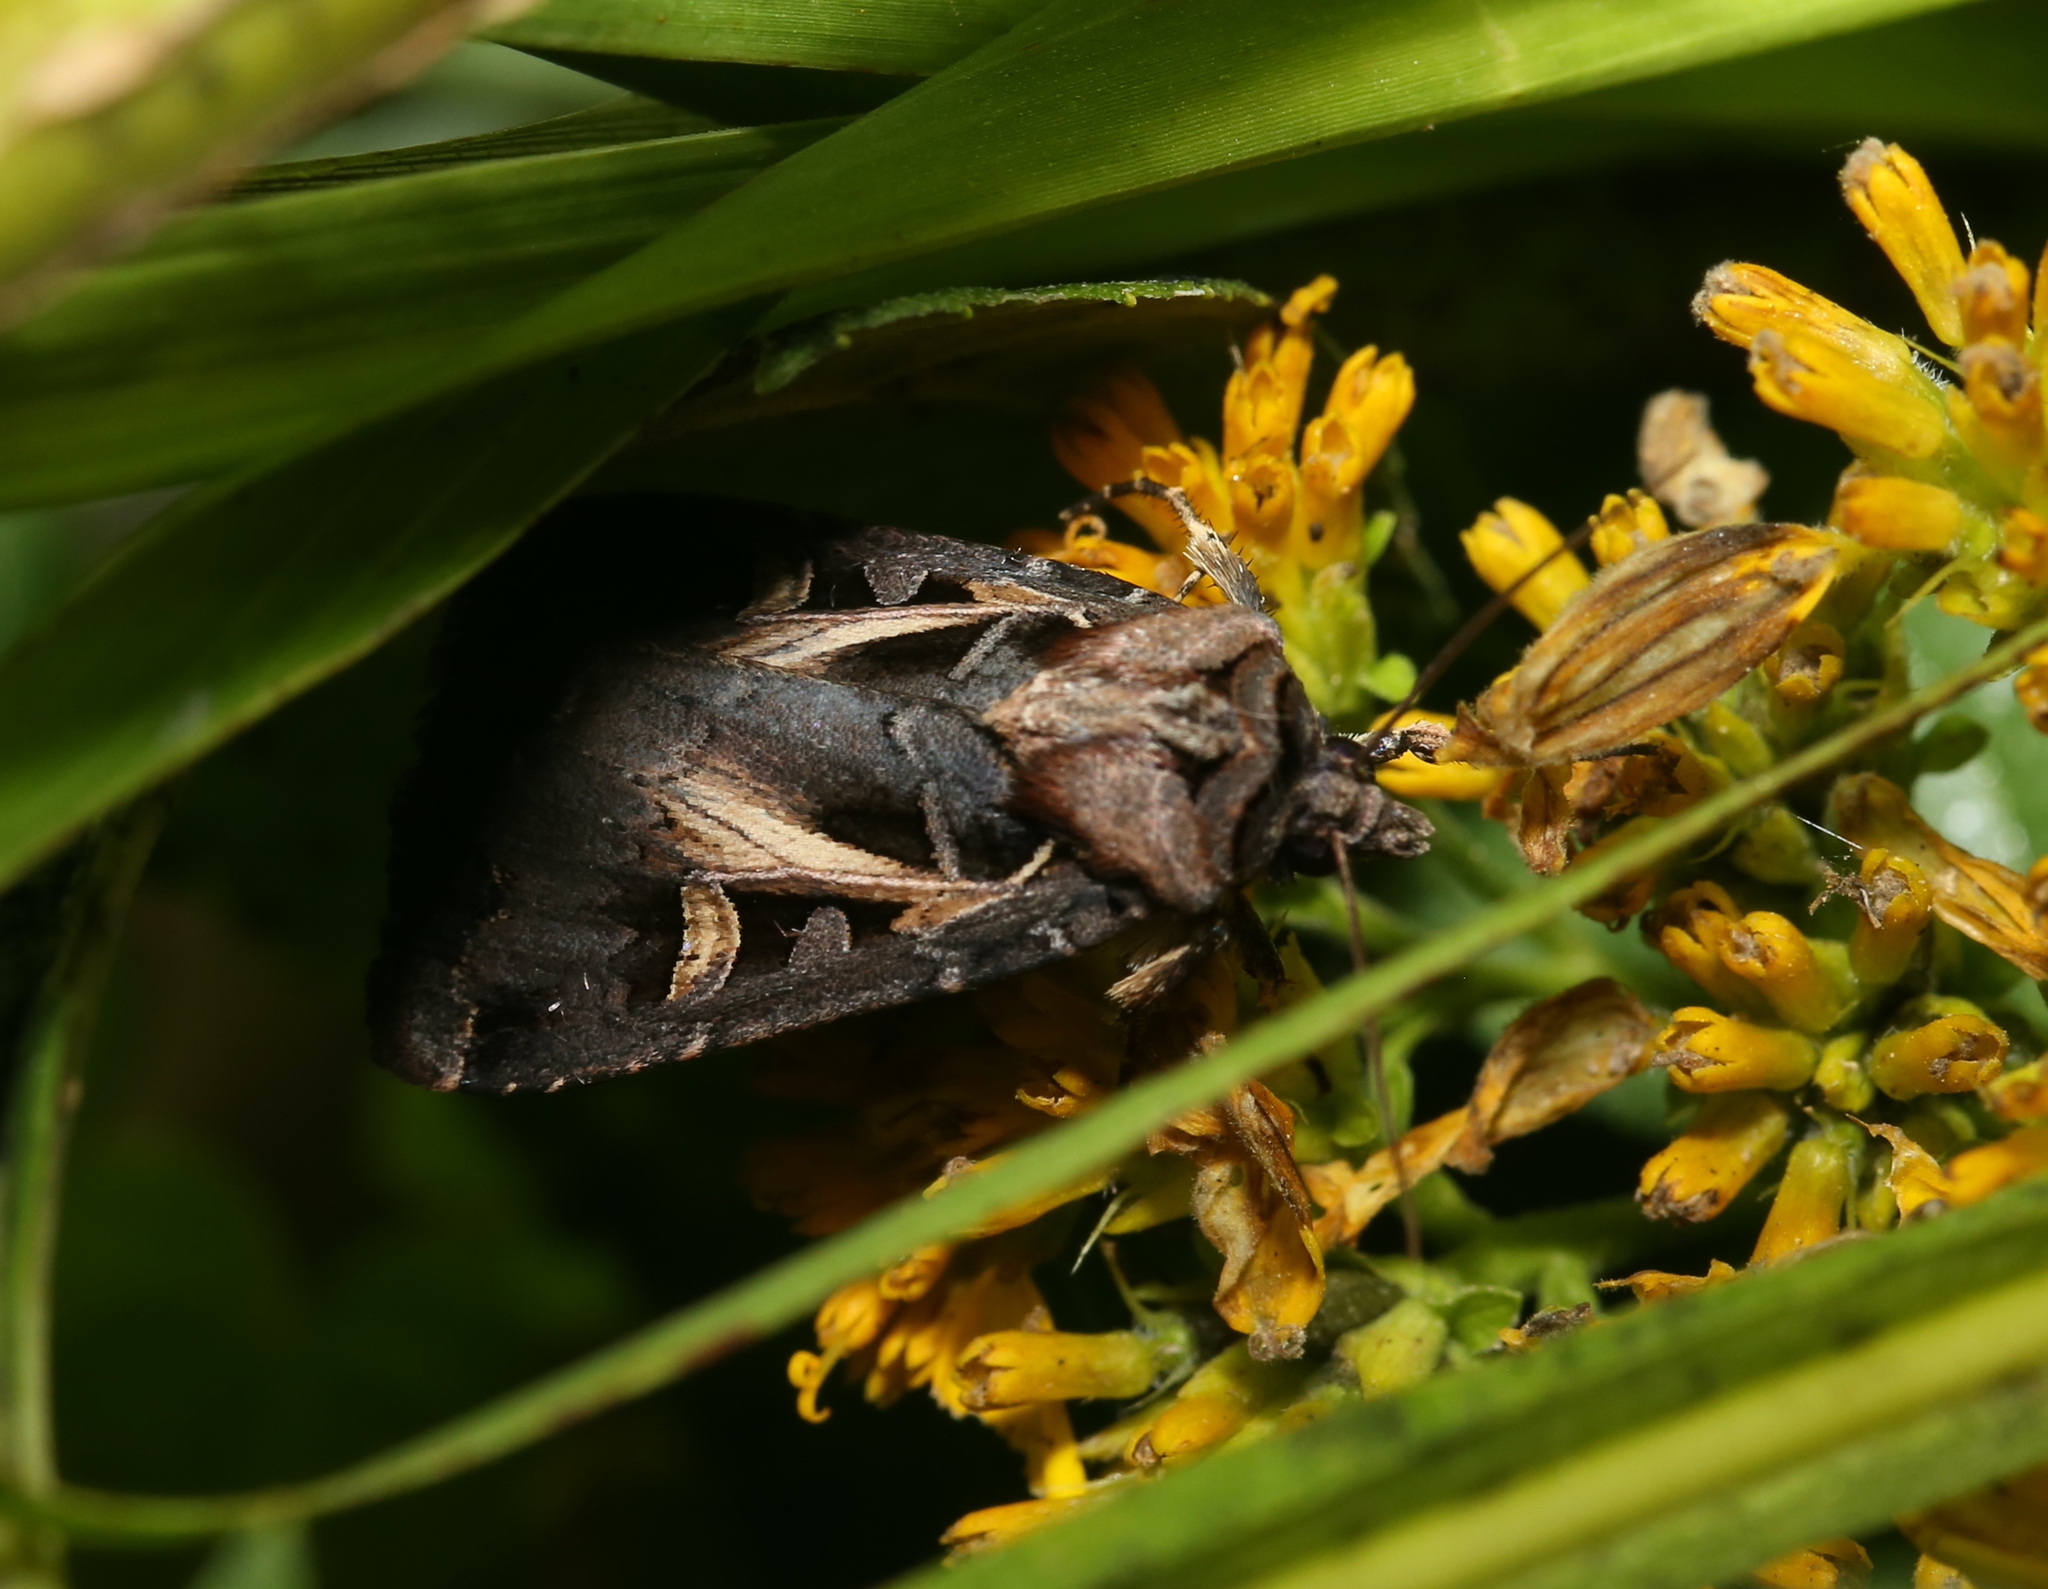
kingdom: Animalia
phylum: Arthropoda
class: Insecta
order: Lepidoptera
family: Noctuidae
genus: Feltia
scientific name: Feltia herilis
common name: Master's dart
